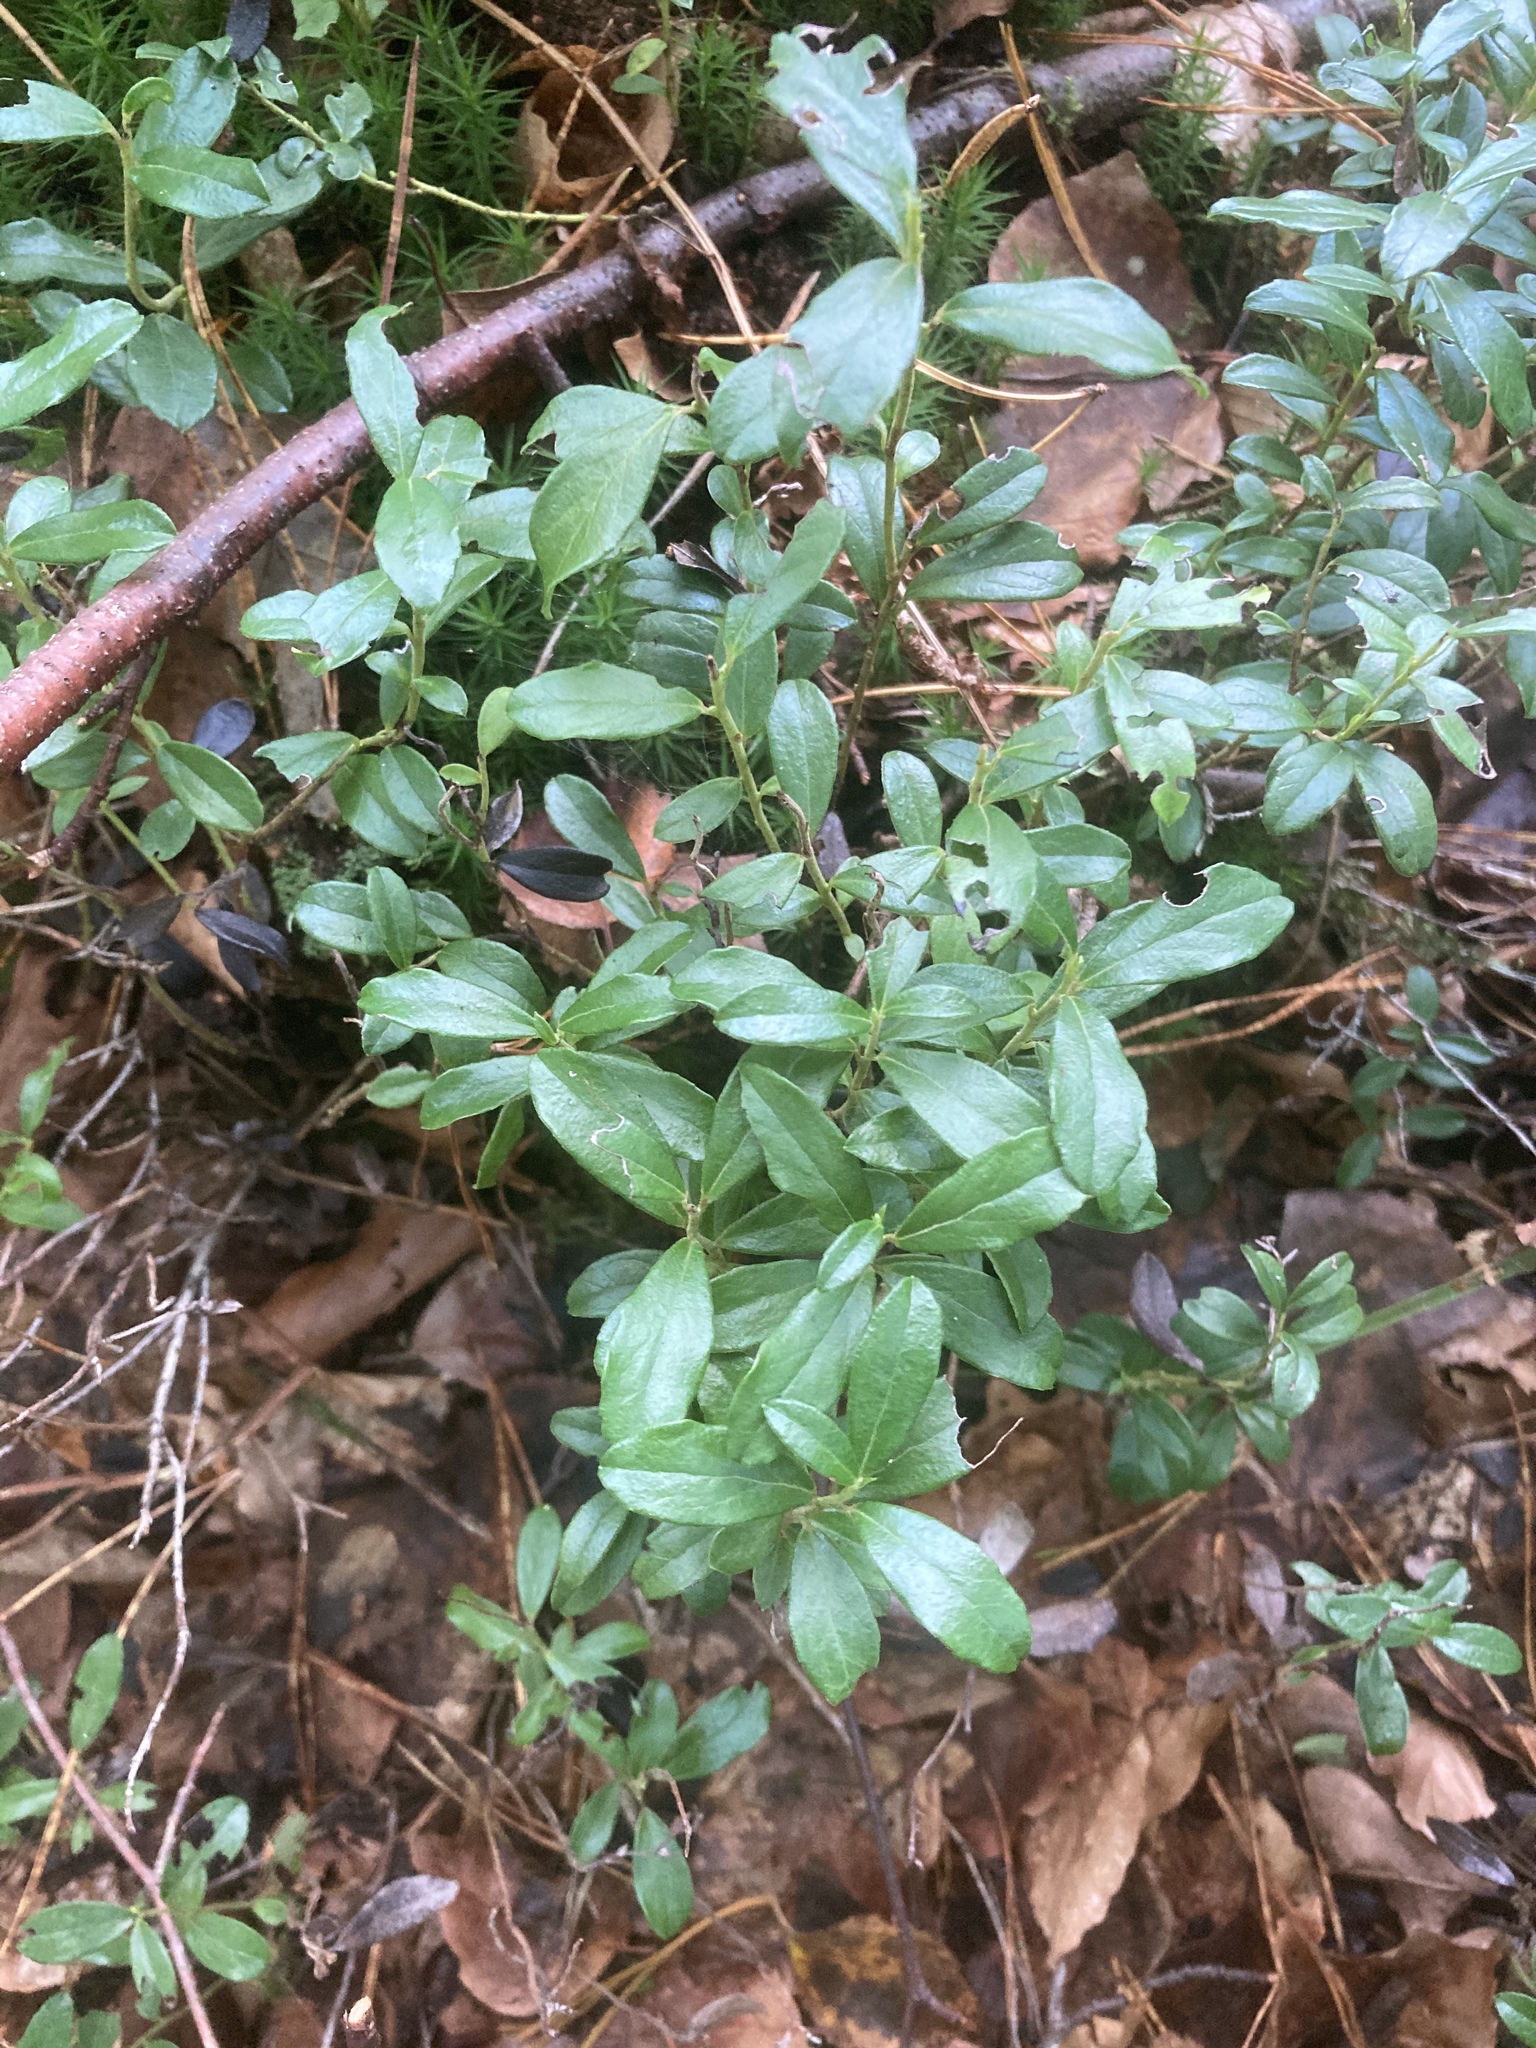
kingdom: Plantae
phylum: Tracheophyta
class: Magnoliopsida
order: Ericales
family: Ericaceae
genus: Vaccinium
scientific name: Vaccinium vitis-idaea
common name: Cowberry
